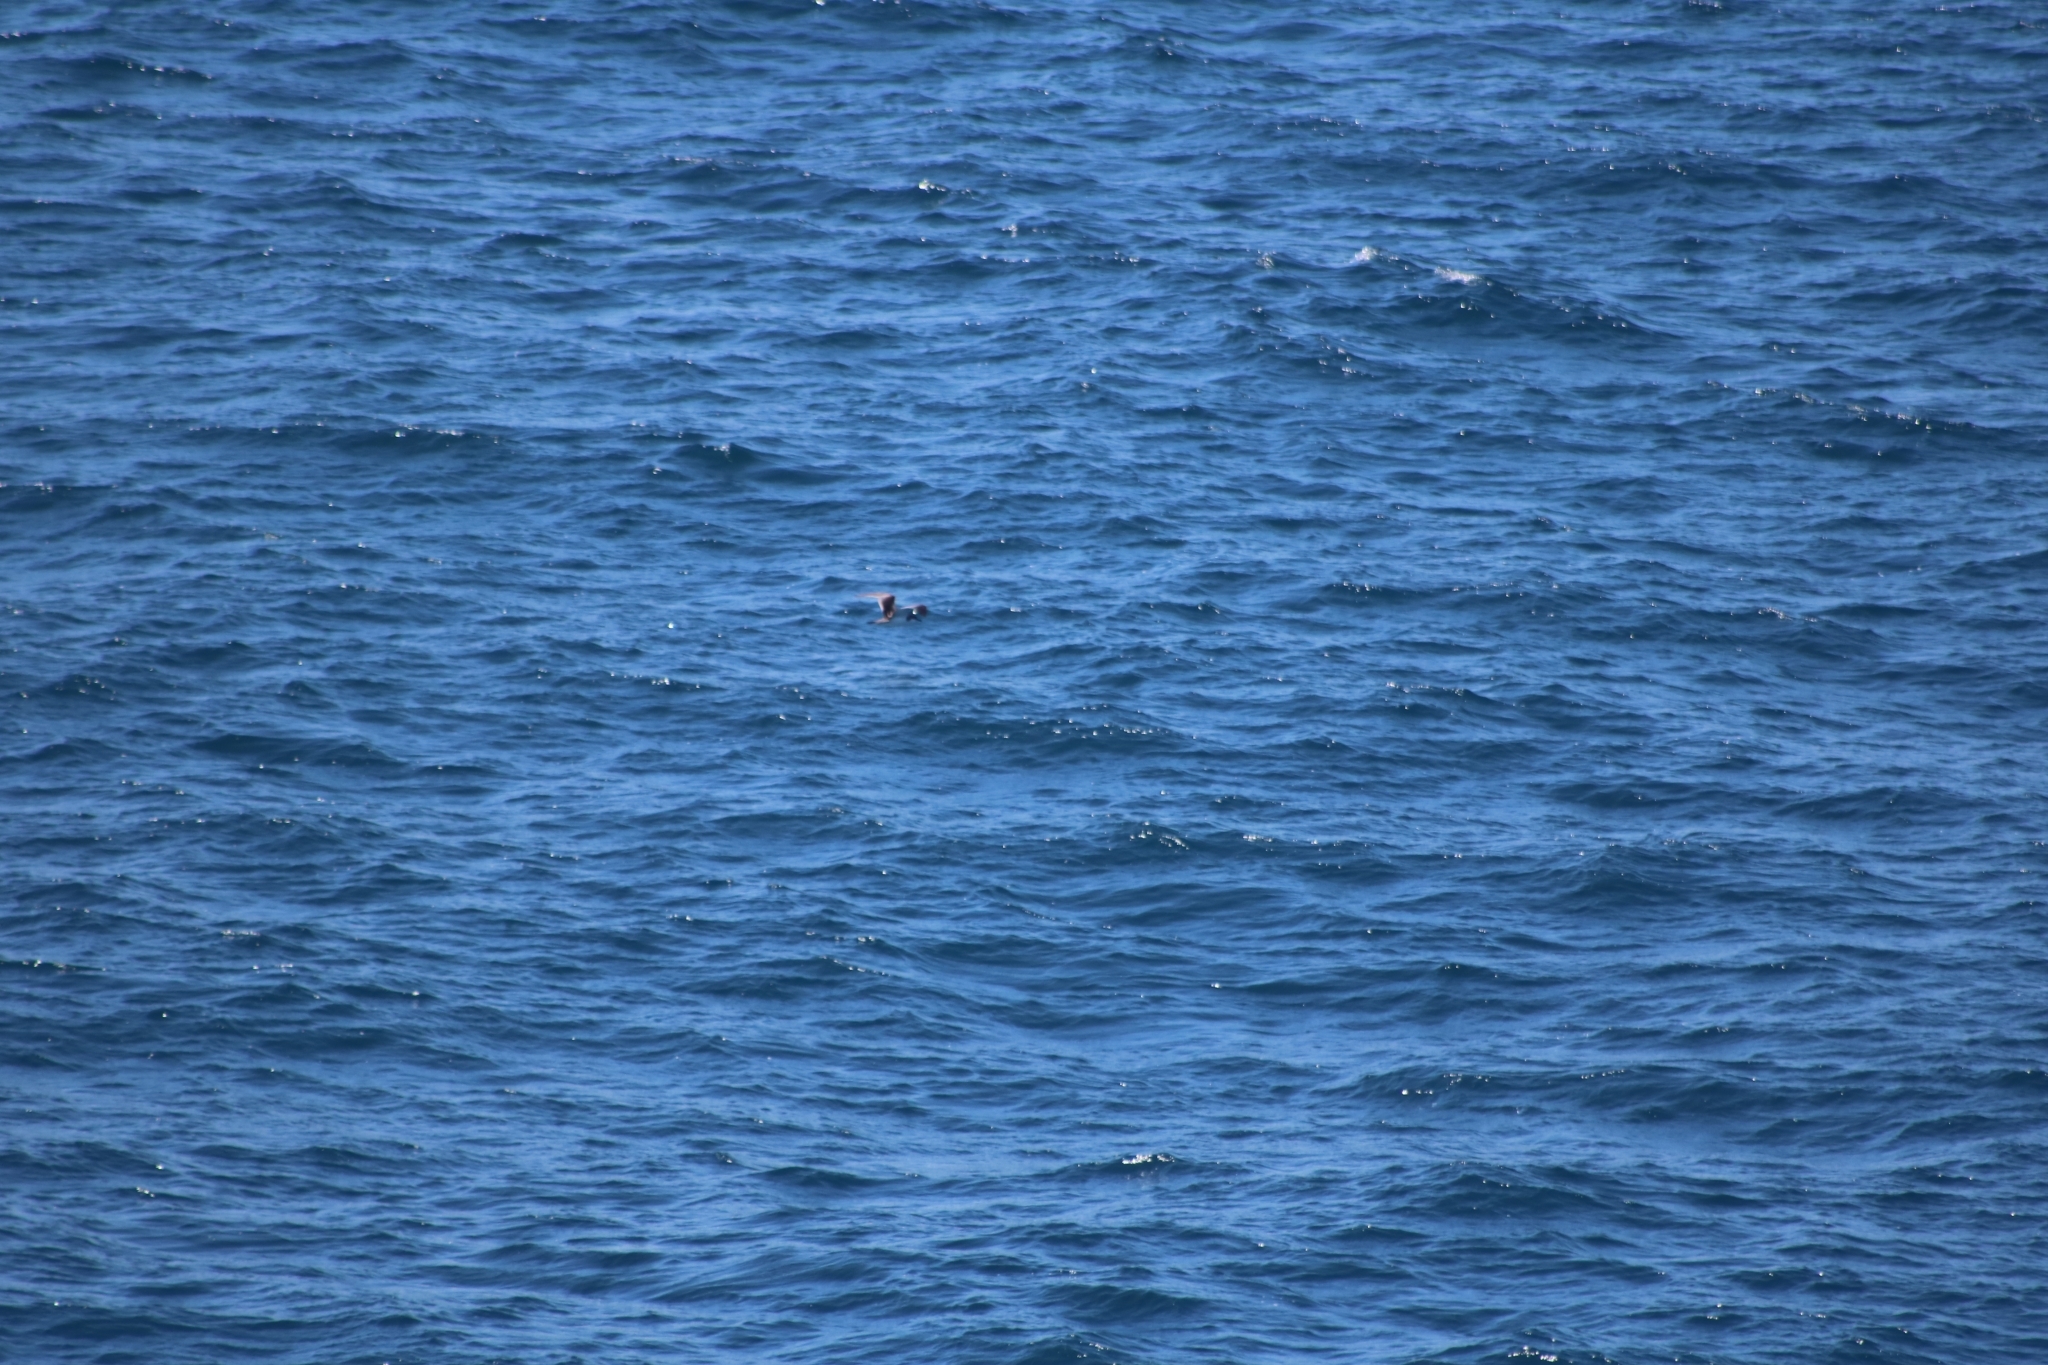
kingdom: Animalia
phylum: Chordata
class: Aves
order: Procellariiformes
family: Procellariidae
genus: Puffinus
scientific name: Puffinus bulleri
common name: Buller's shearwater
